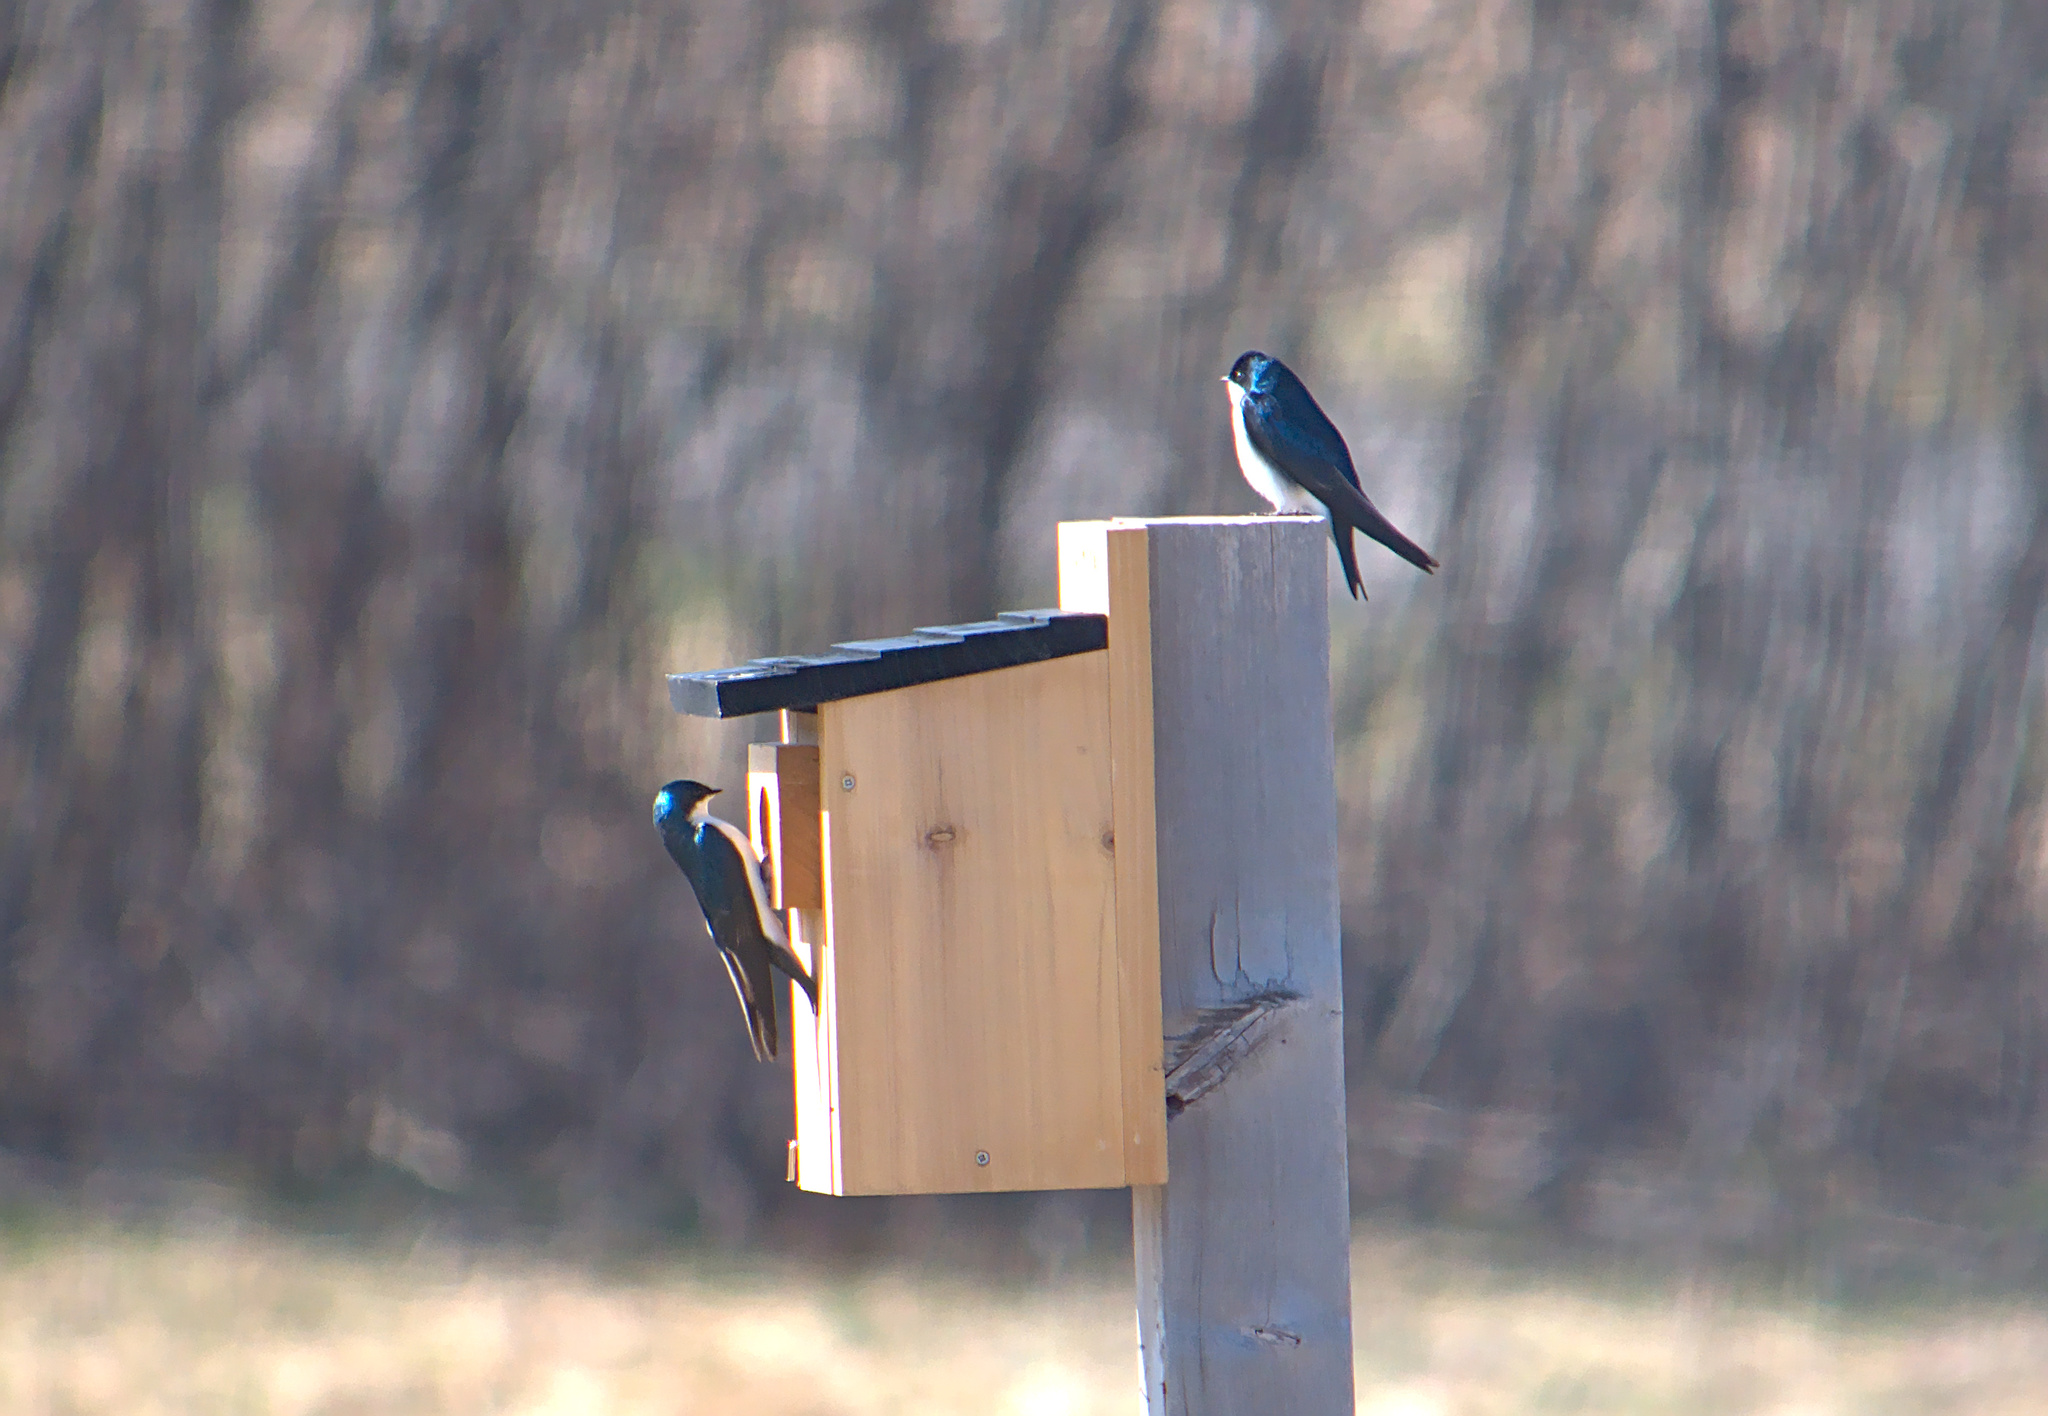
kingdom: Animalia
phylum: Chordata
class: Aves
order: Passeriformes
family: Hirundinidae
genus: Tachycineta
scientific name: Tachycineta bicolor
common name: Tree swallow
